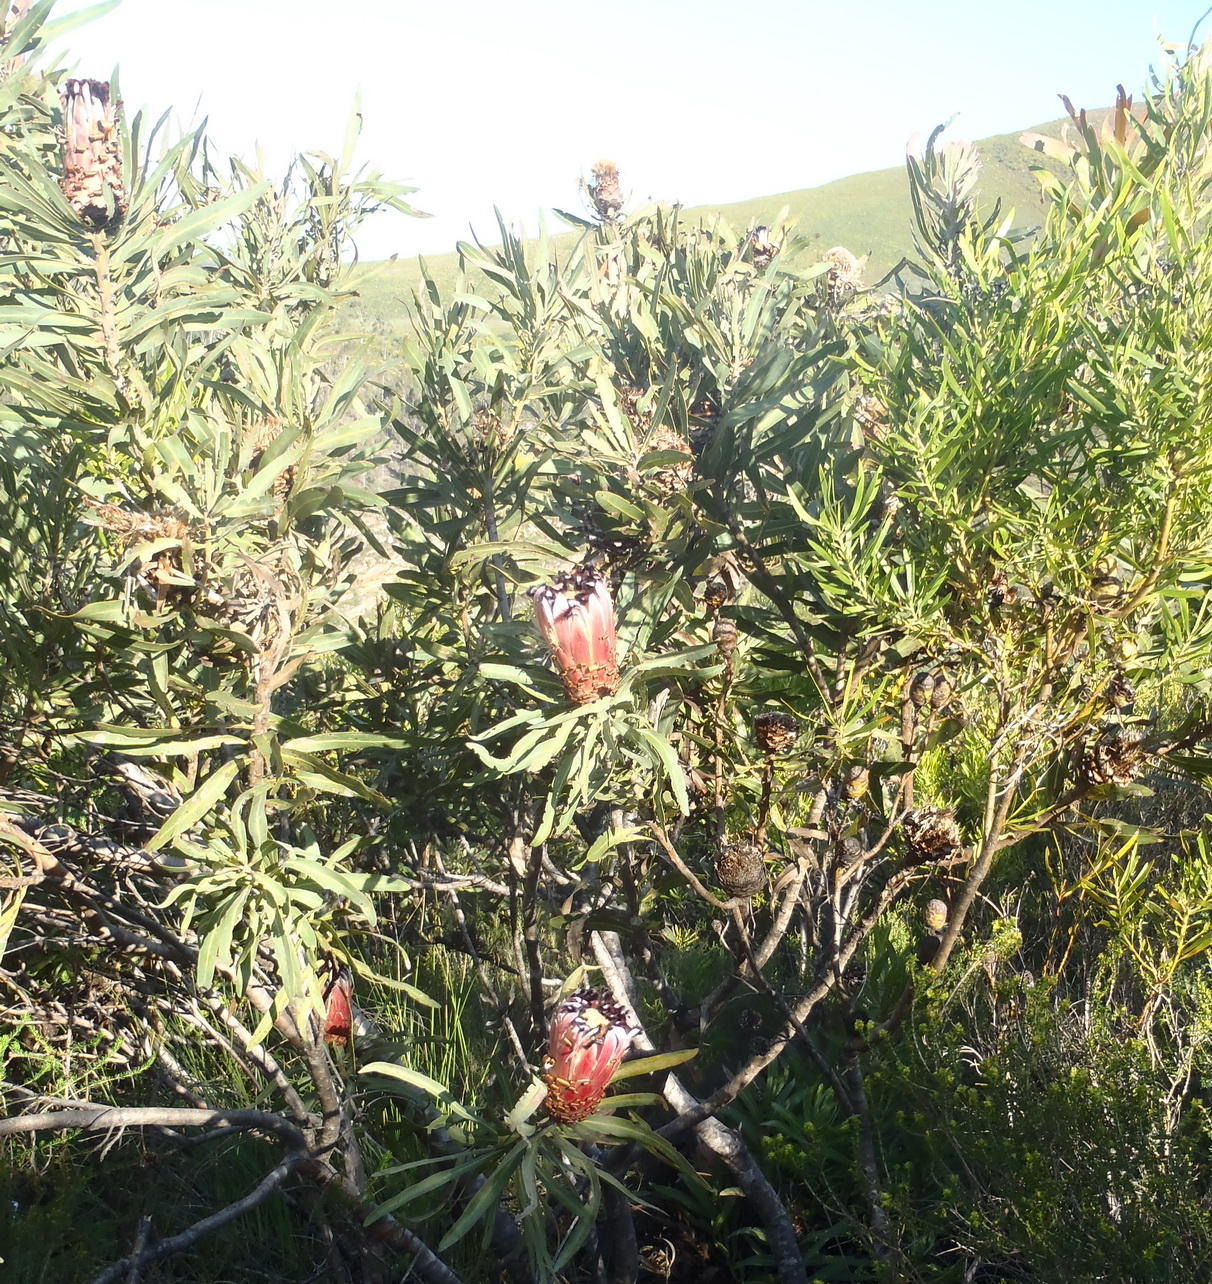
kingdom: Plantae
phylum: Tracheophyta
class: Magnoliopsida
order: Proteales
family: Proteaceae
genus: Protea
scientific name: Protea neriifolia
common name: Blue sugarbush
